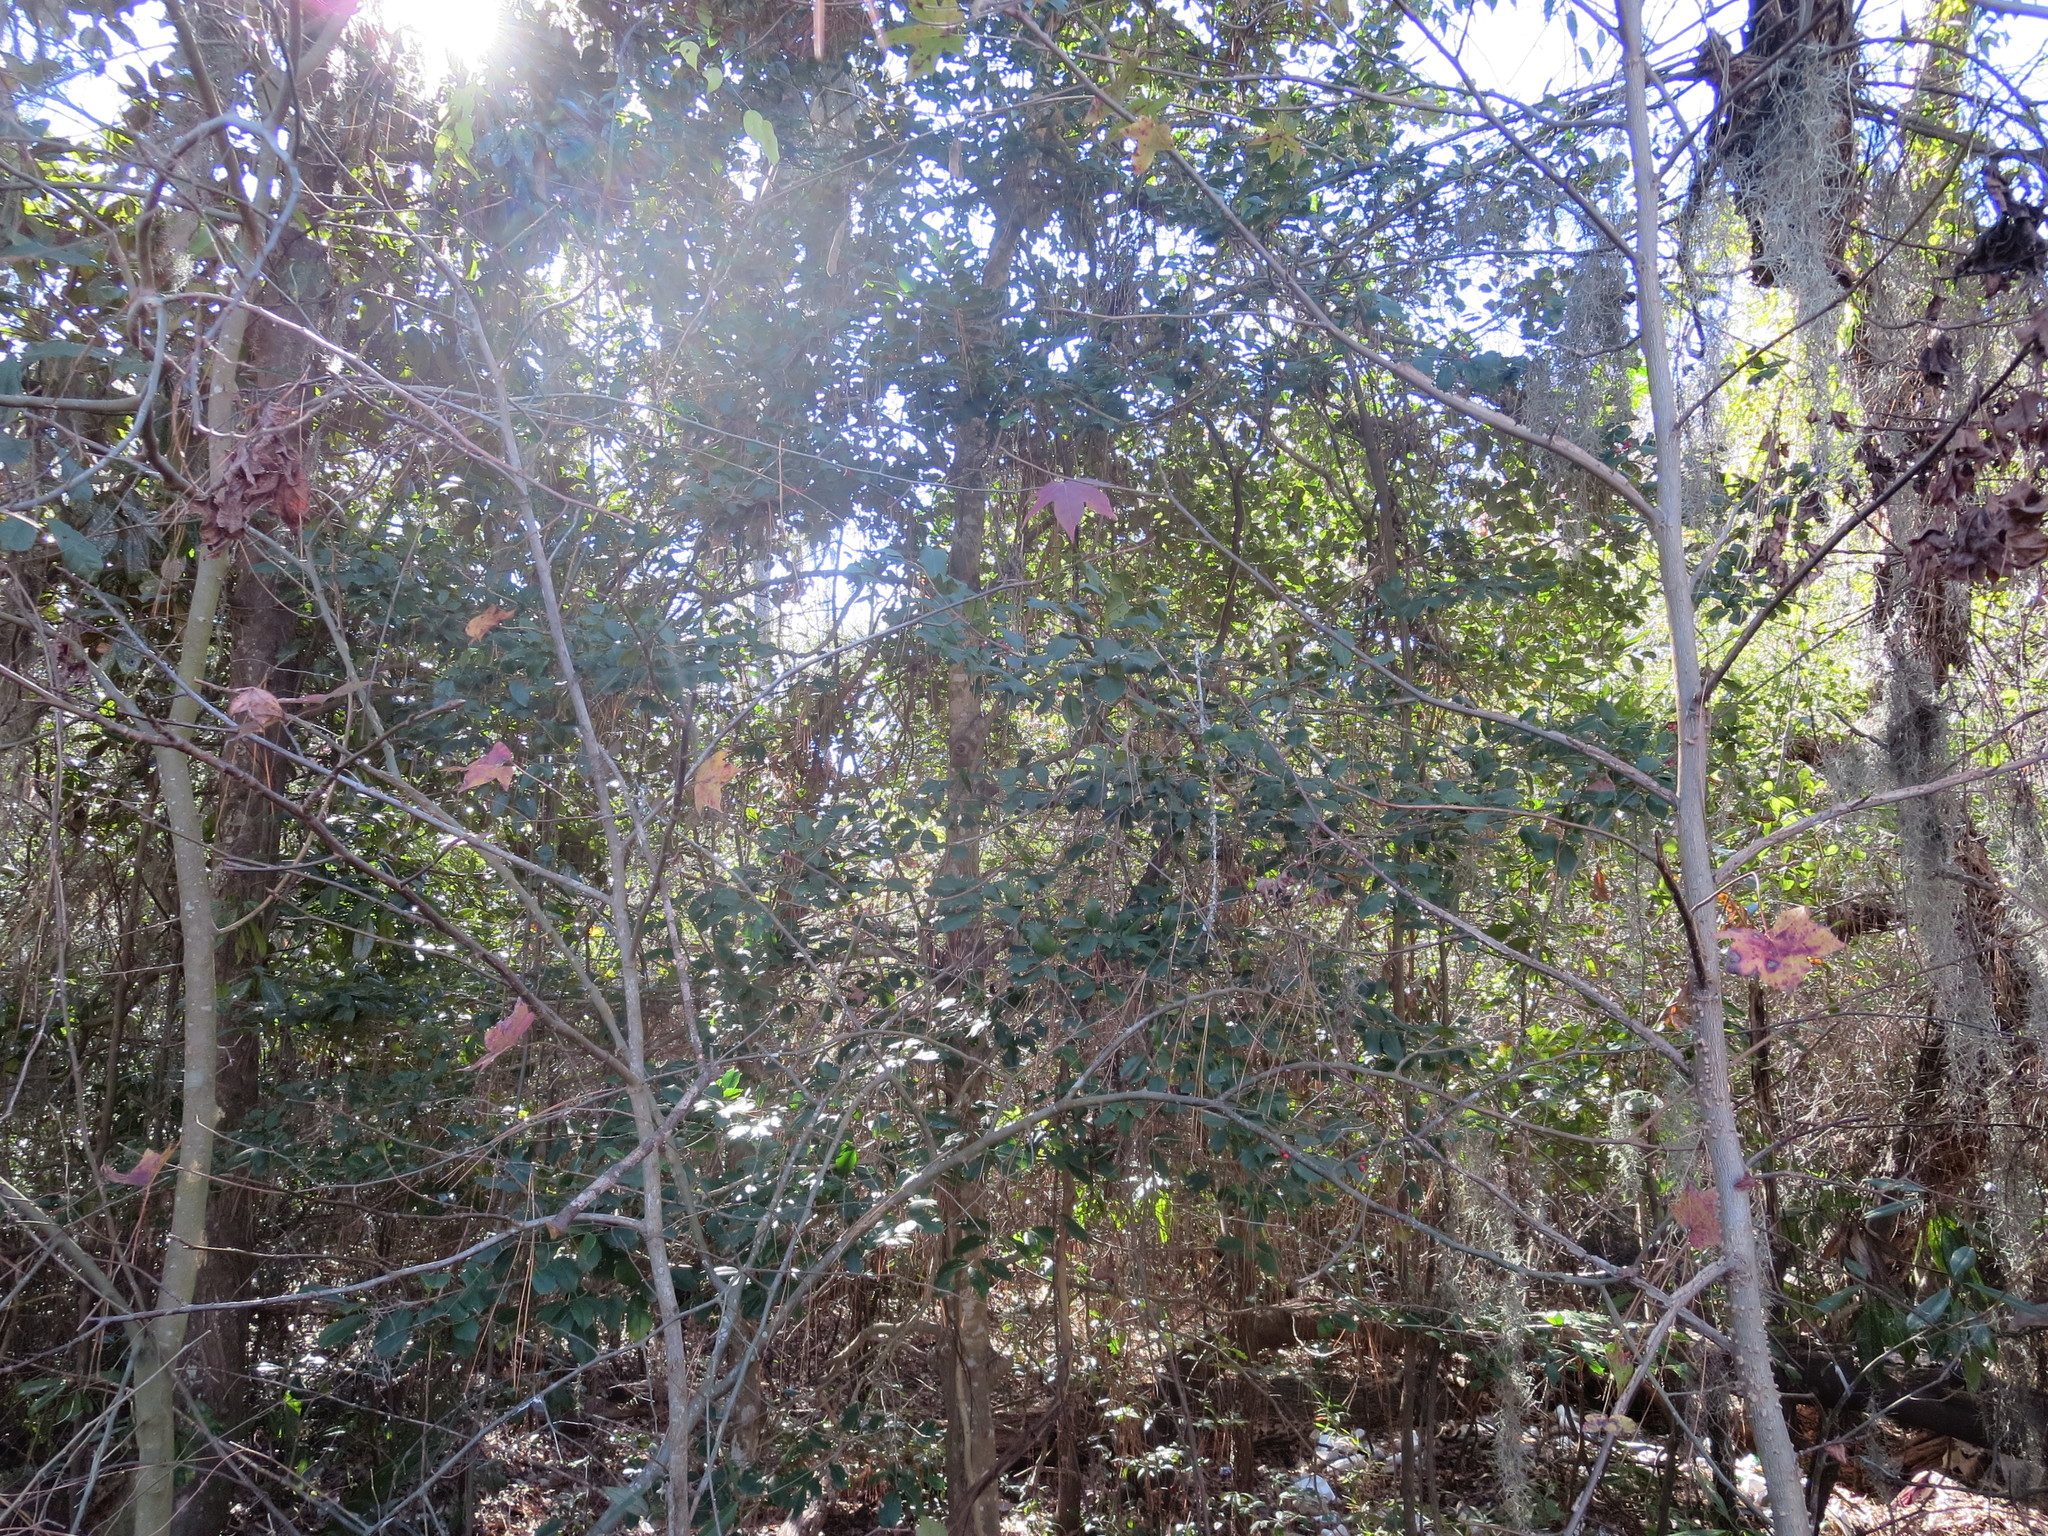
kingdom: Plantae
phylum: Tracheophyta
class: Magnoliopsida
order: Aquifoliales
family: Aquifoliaceae
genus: Ilex
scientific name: Ilex opaca
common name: American holly
